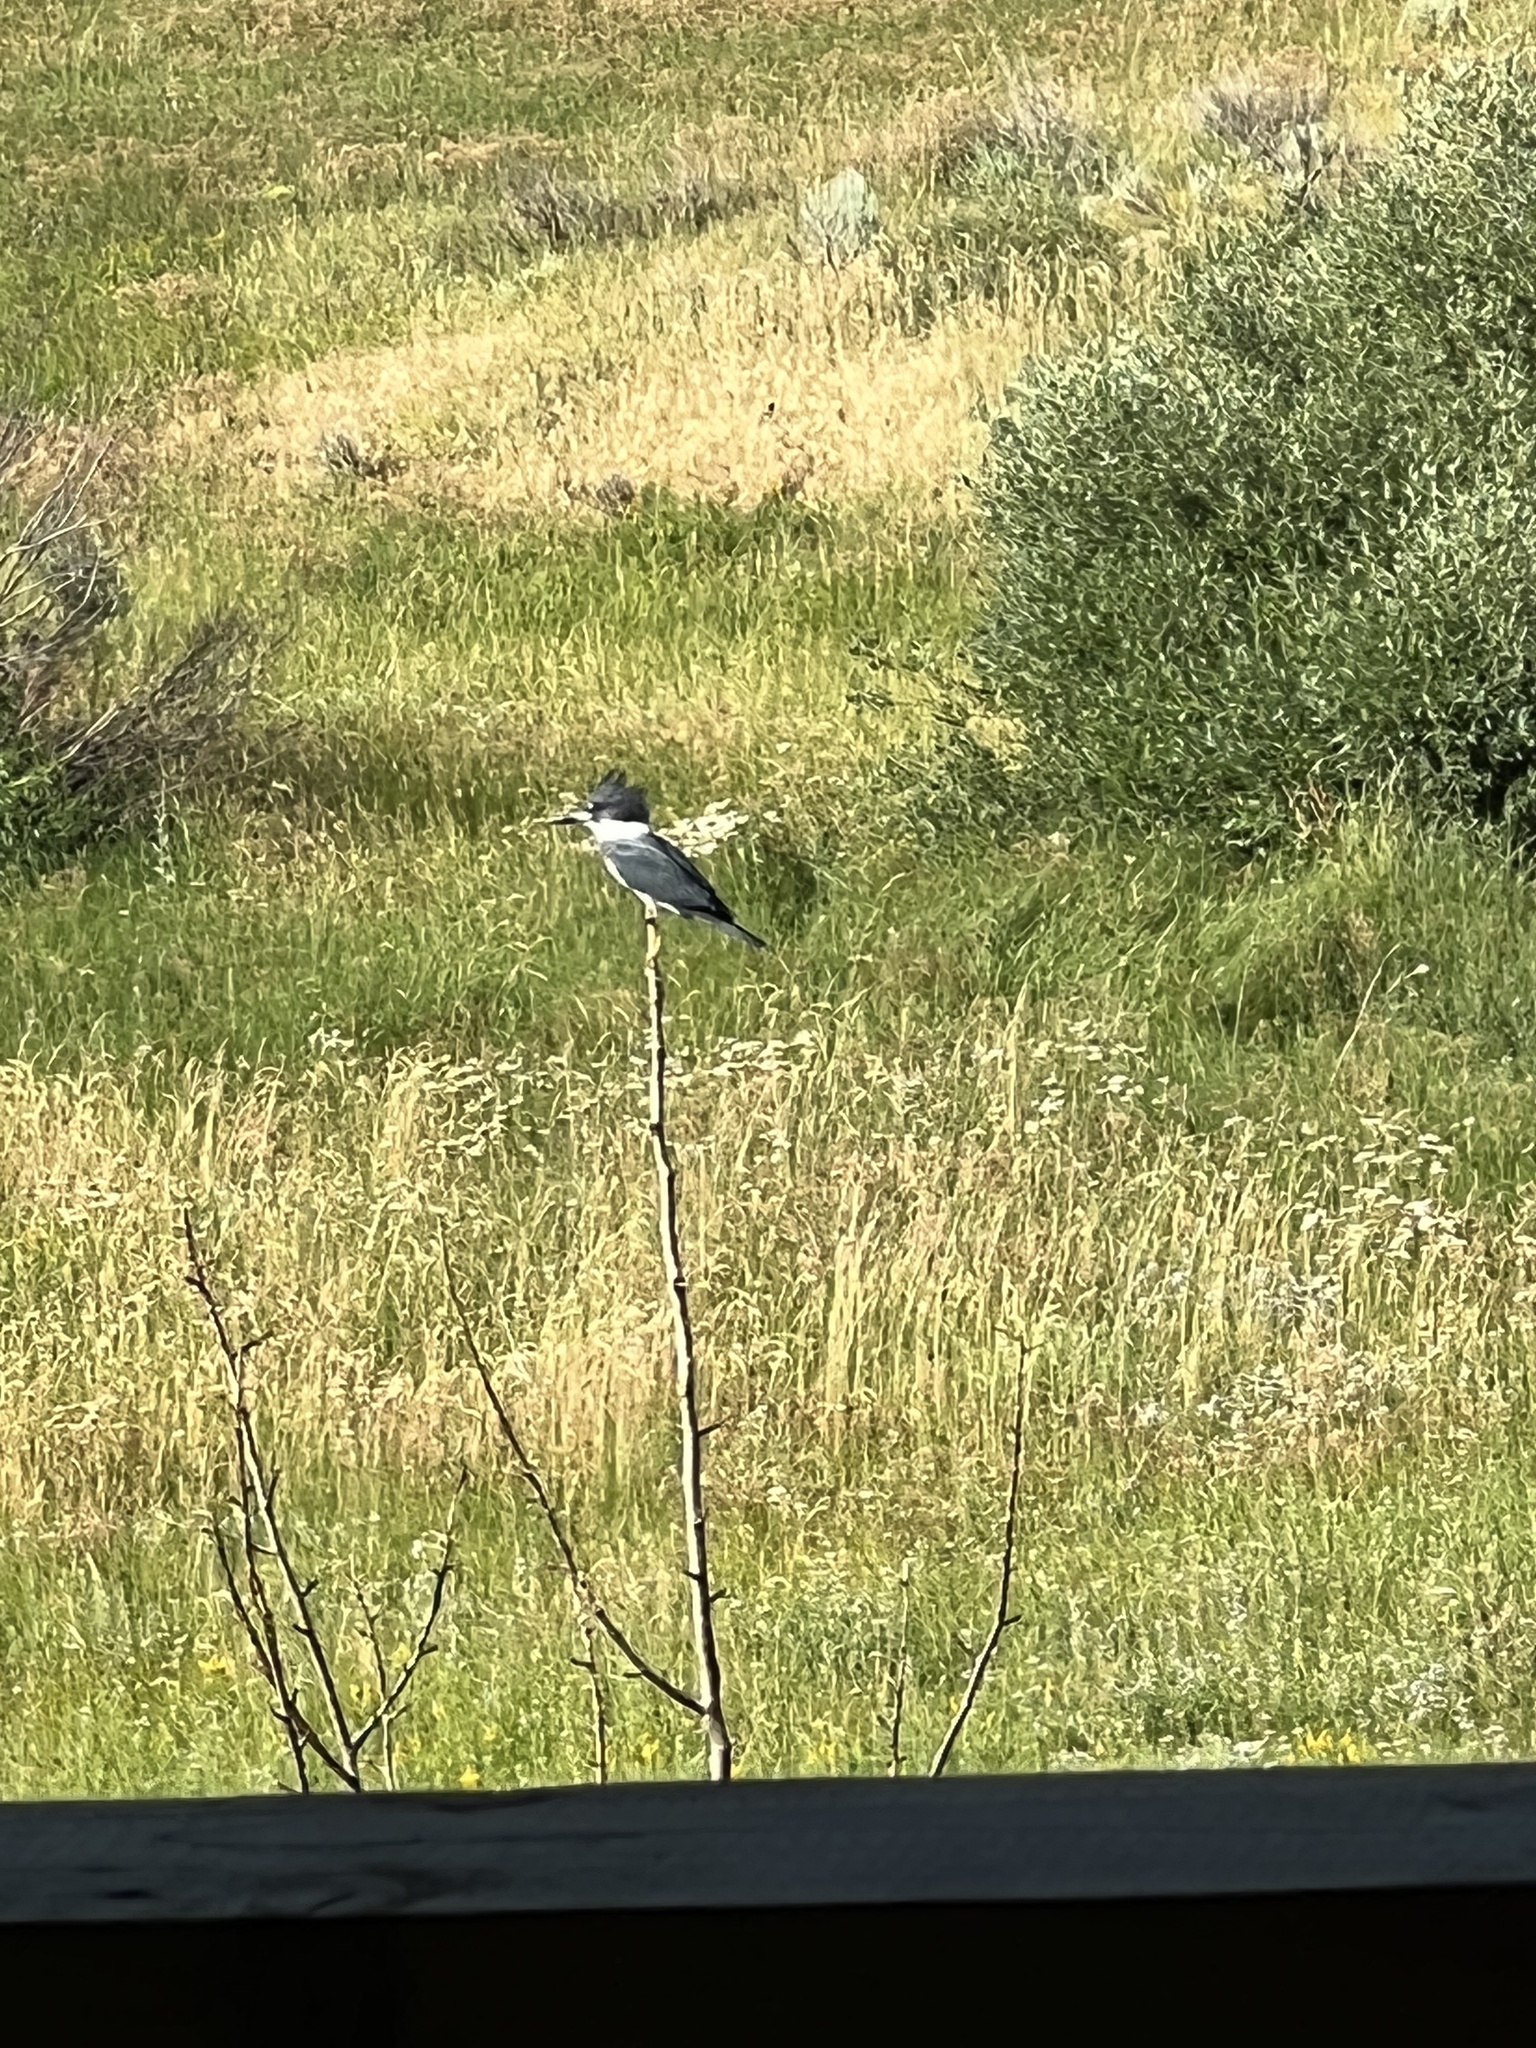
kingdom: Animalia
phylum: Chordata
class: Aves
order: Coraciiformes
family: Alcedinidae
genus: Megaceryle
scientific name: Megaceryle alcyon
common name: Belted kingfisher
